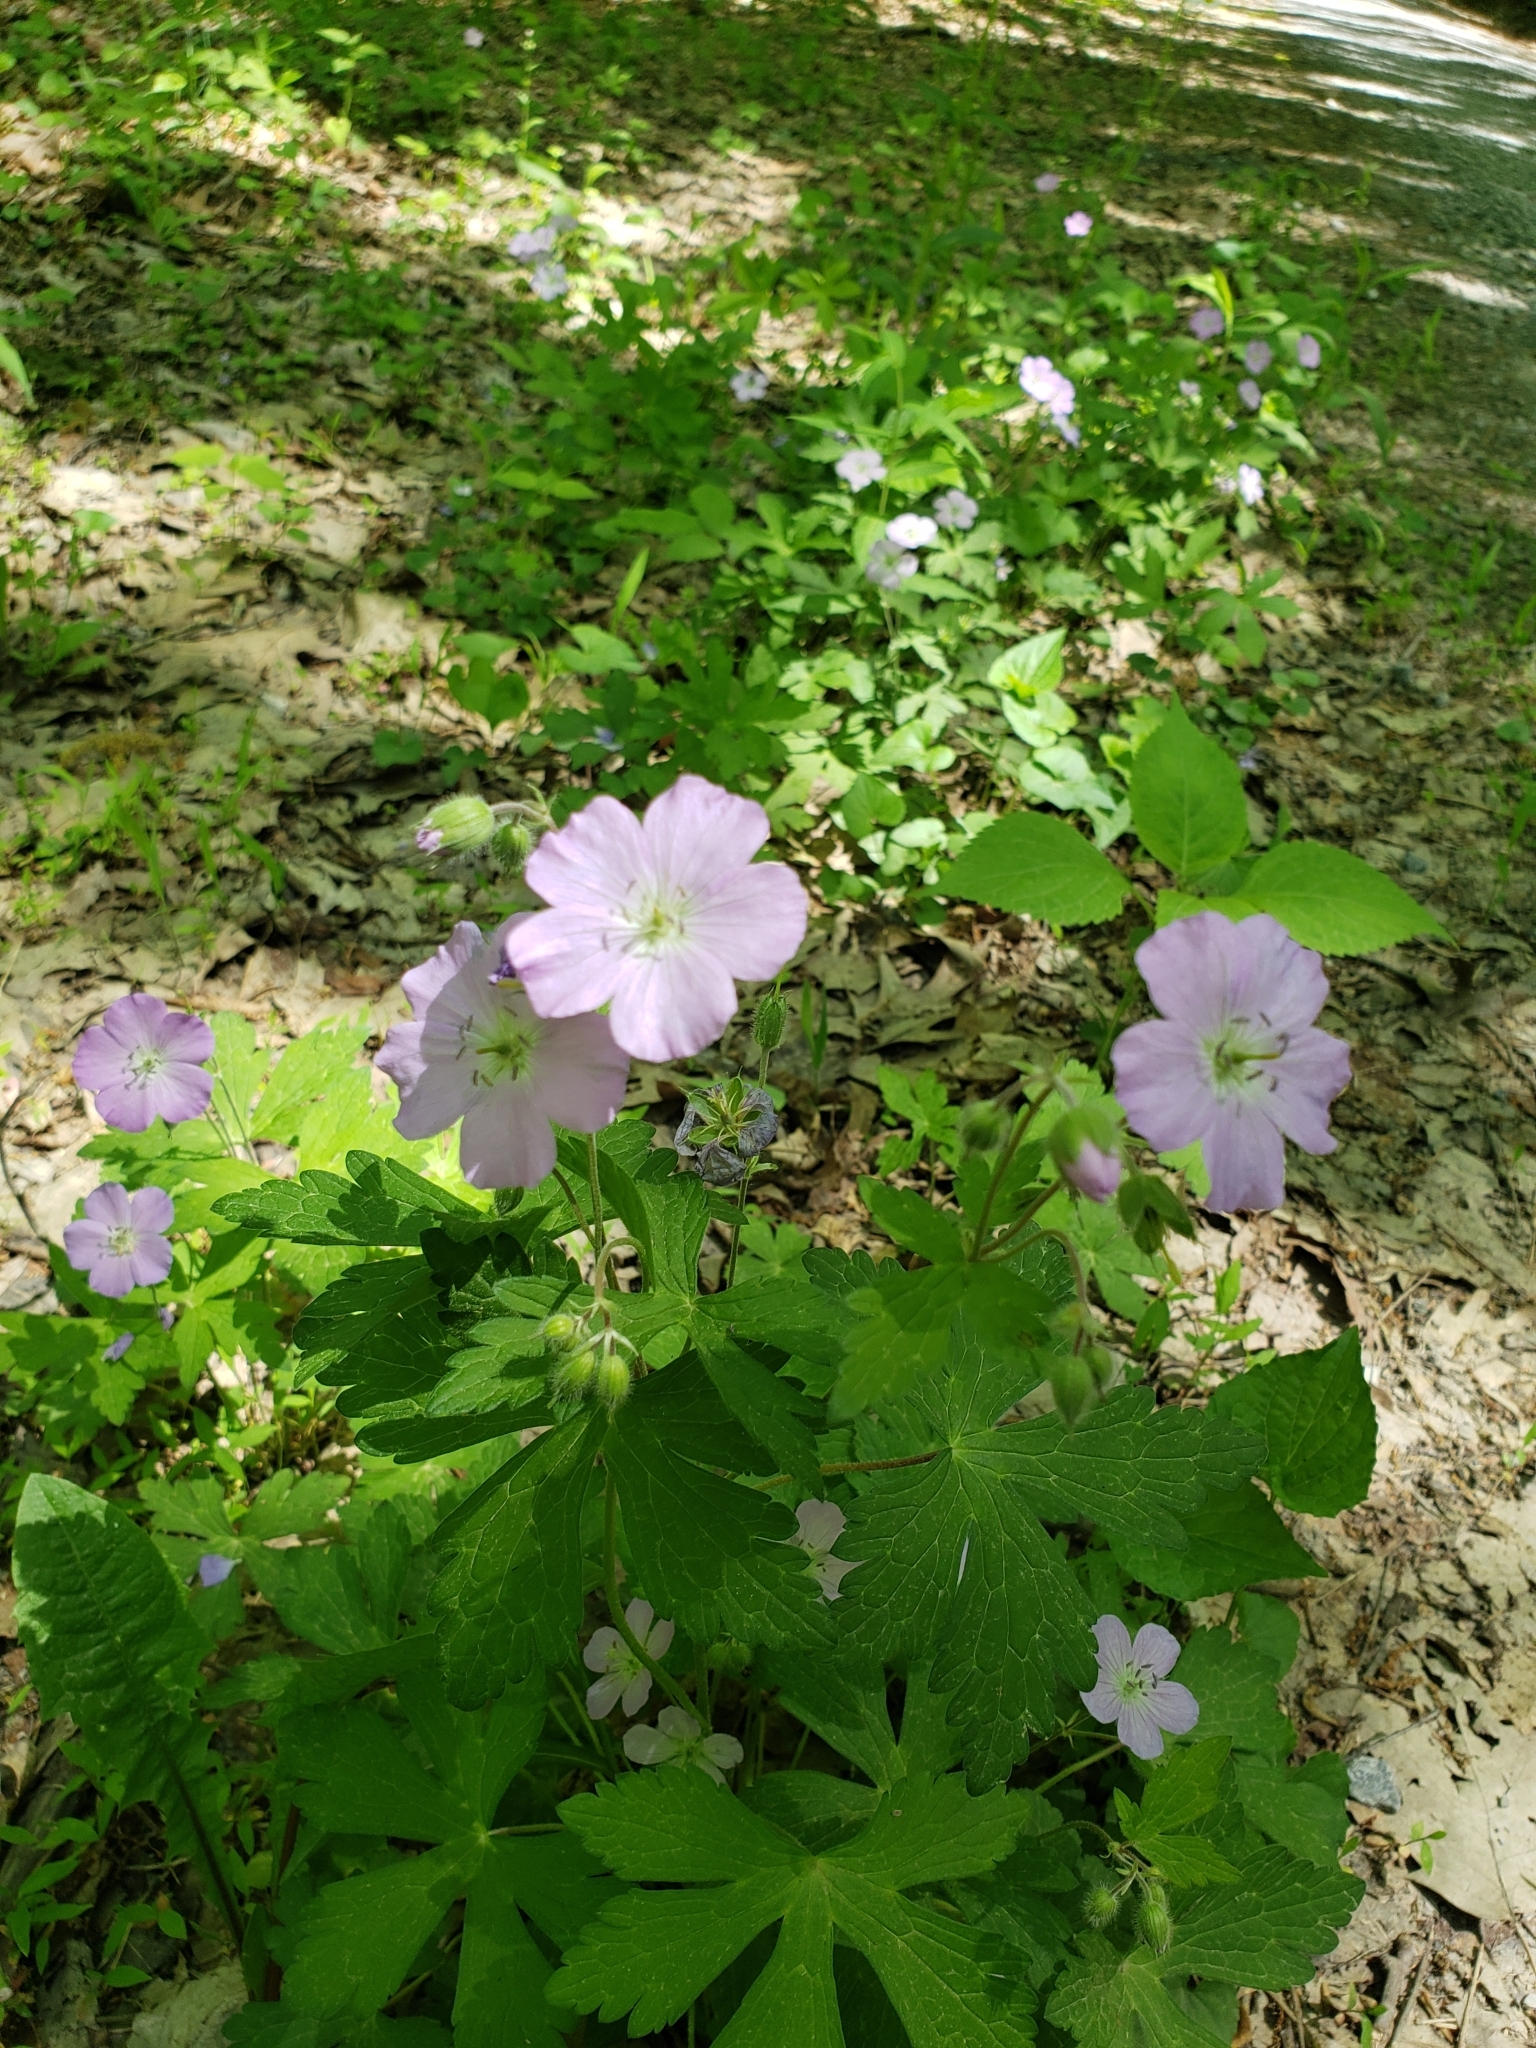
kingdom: Plantae
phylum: Tracheophyta
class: Magnoliopsida
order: Geraniales
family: Geraniaceae
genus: Geranium
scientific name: Geranium maculatum
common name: Spotted geranium
